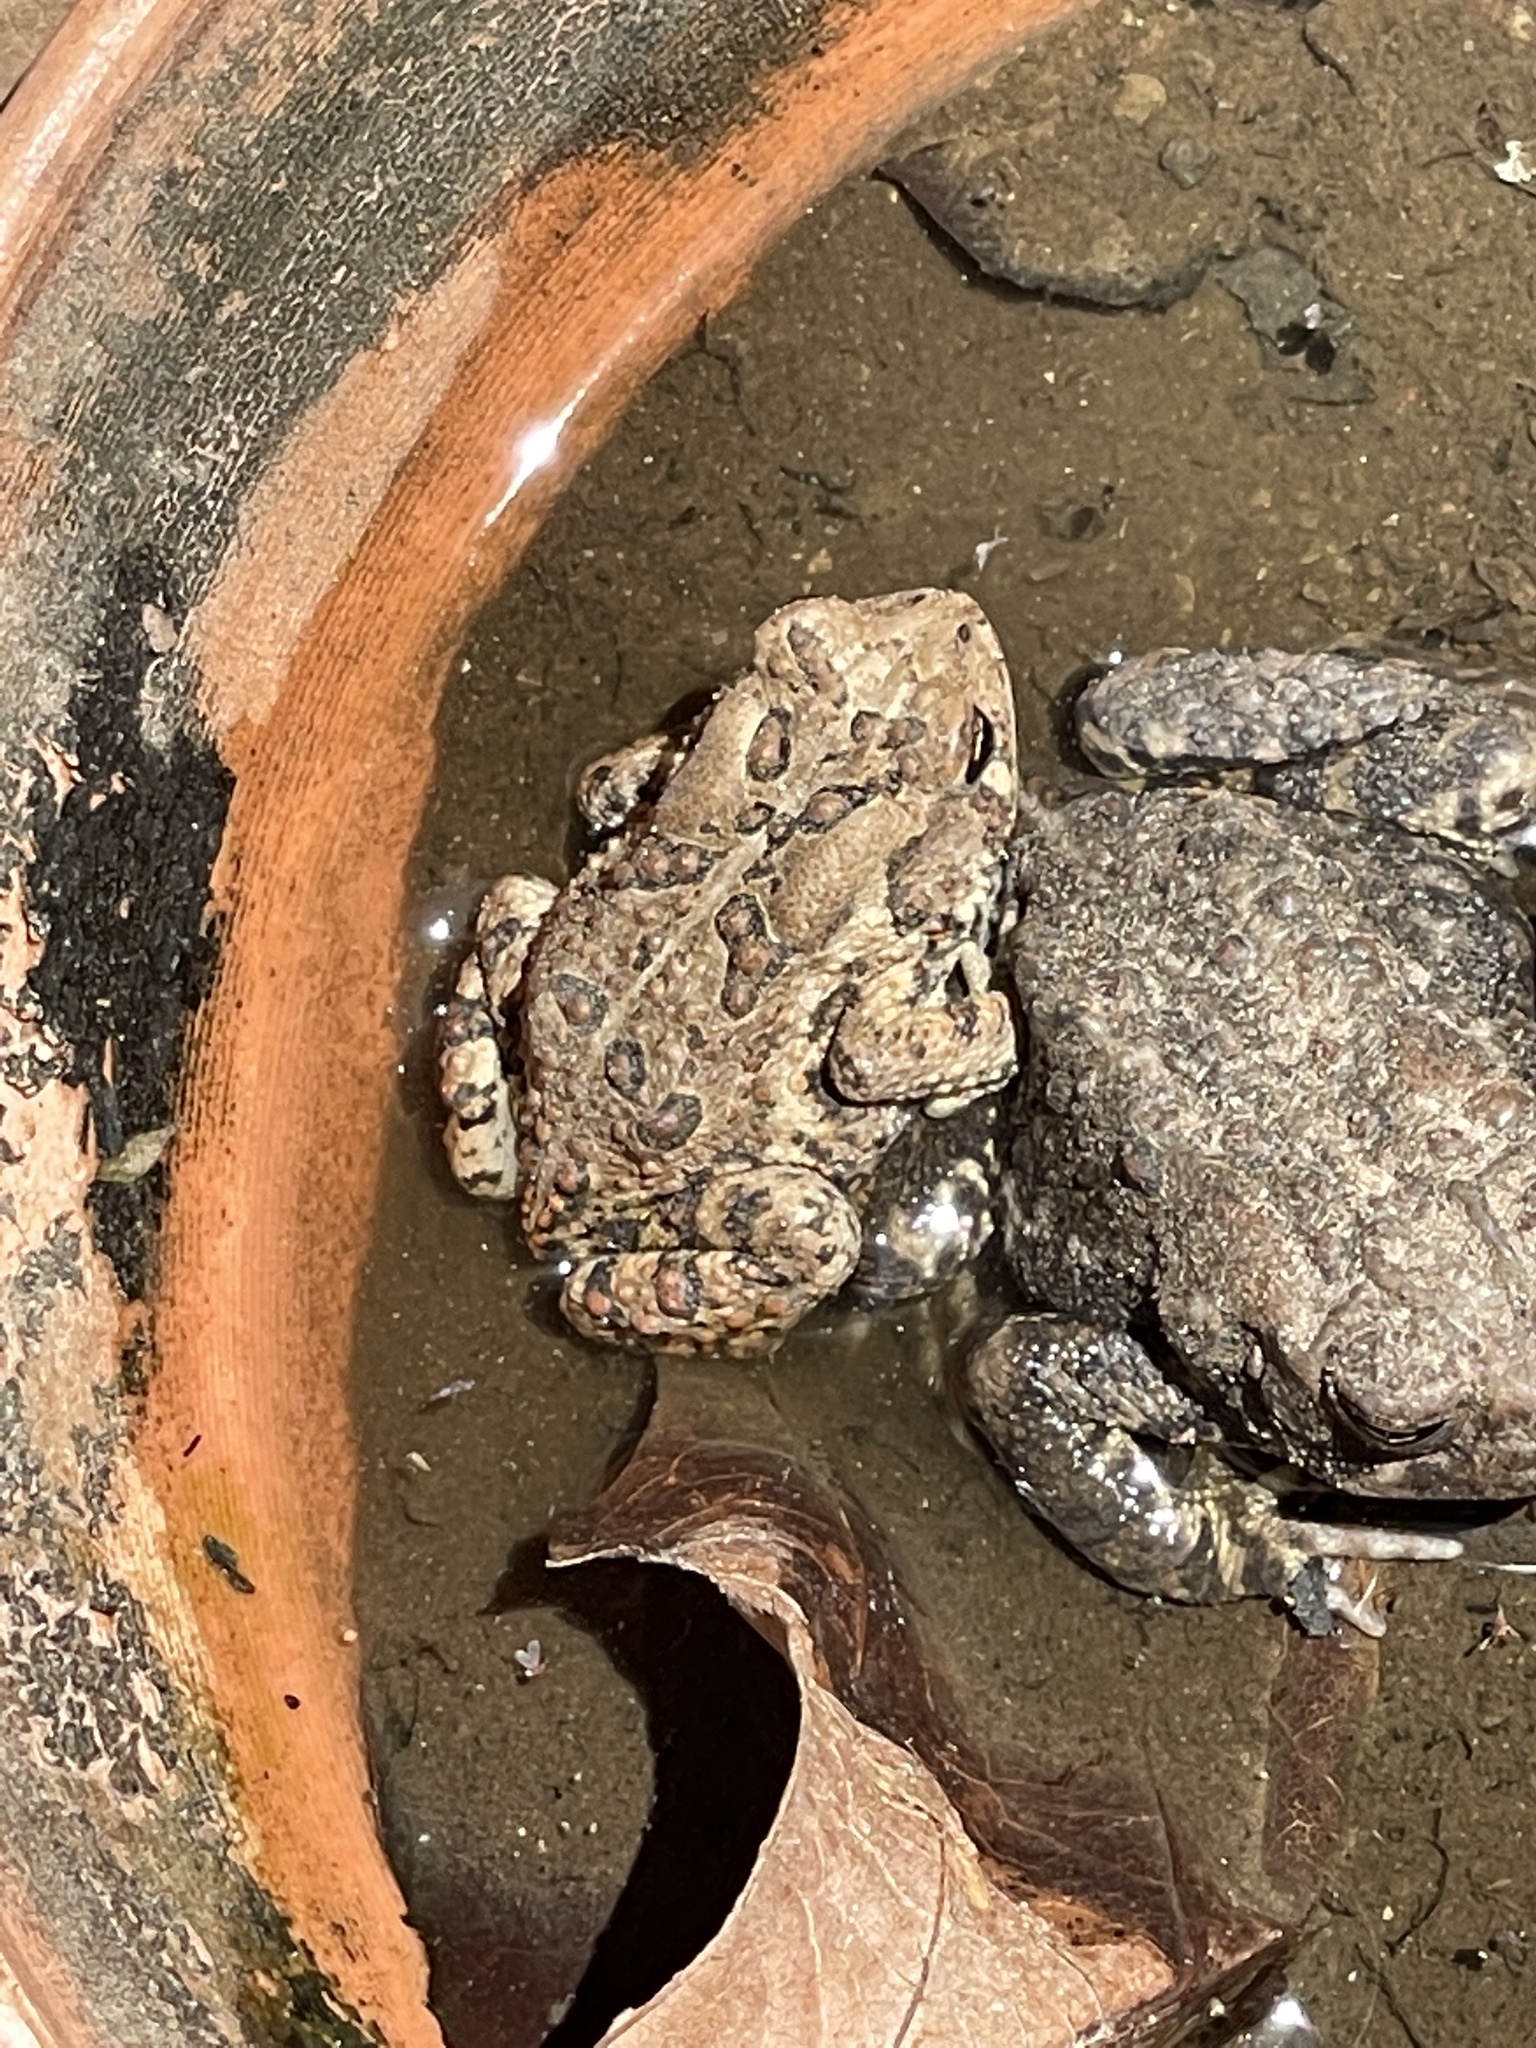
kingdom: Animalia
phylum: Chordata
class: Amphibia
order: Anura
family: Bufonidae
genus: Anaxyrus
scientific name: Anaxyrus americanus
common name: American toad
